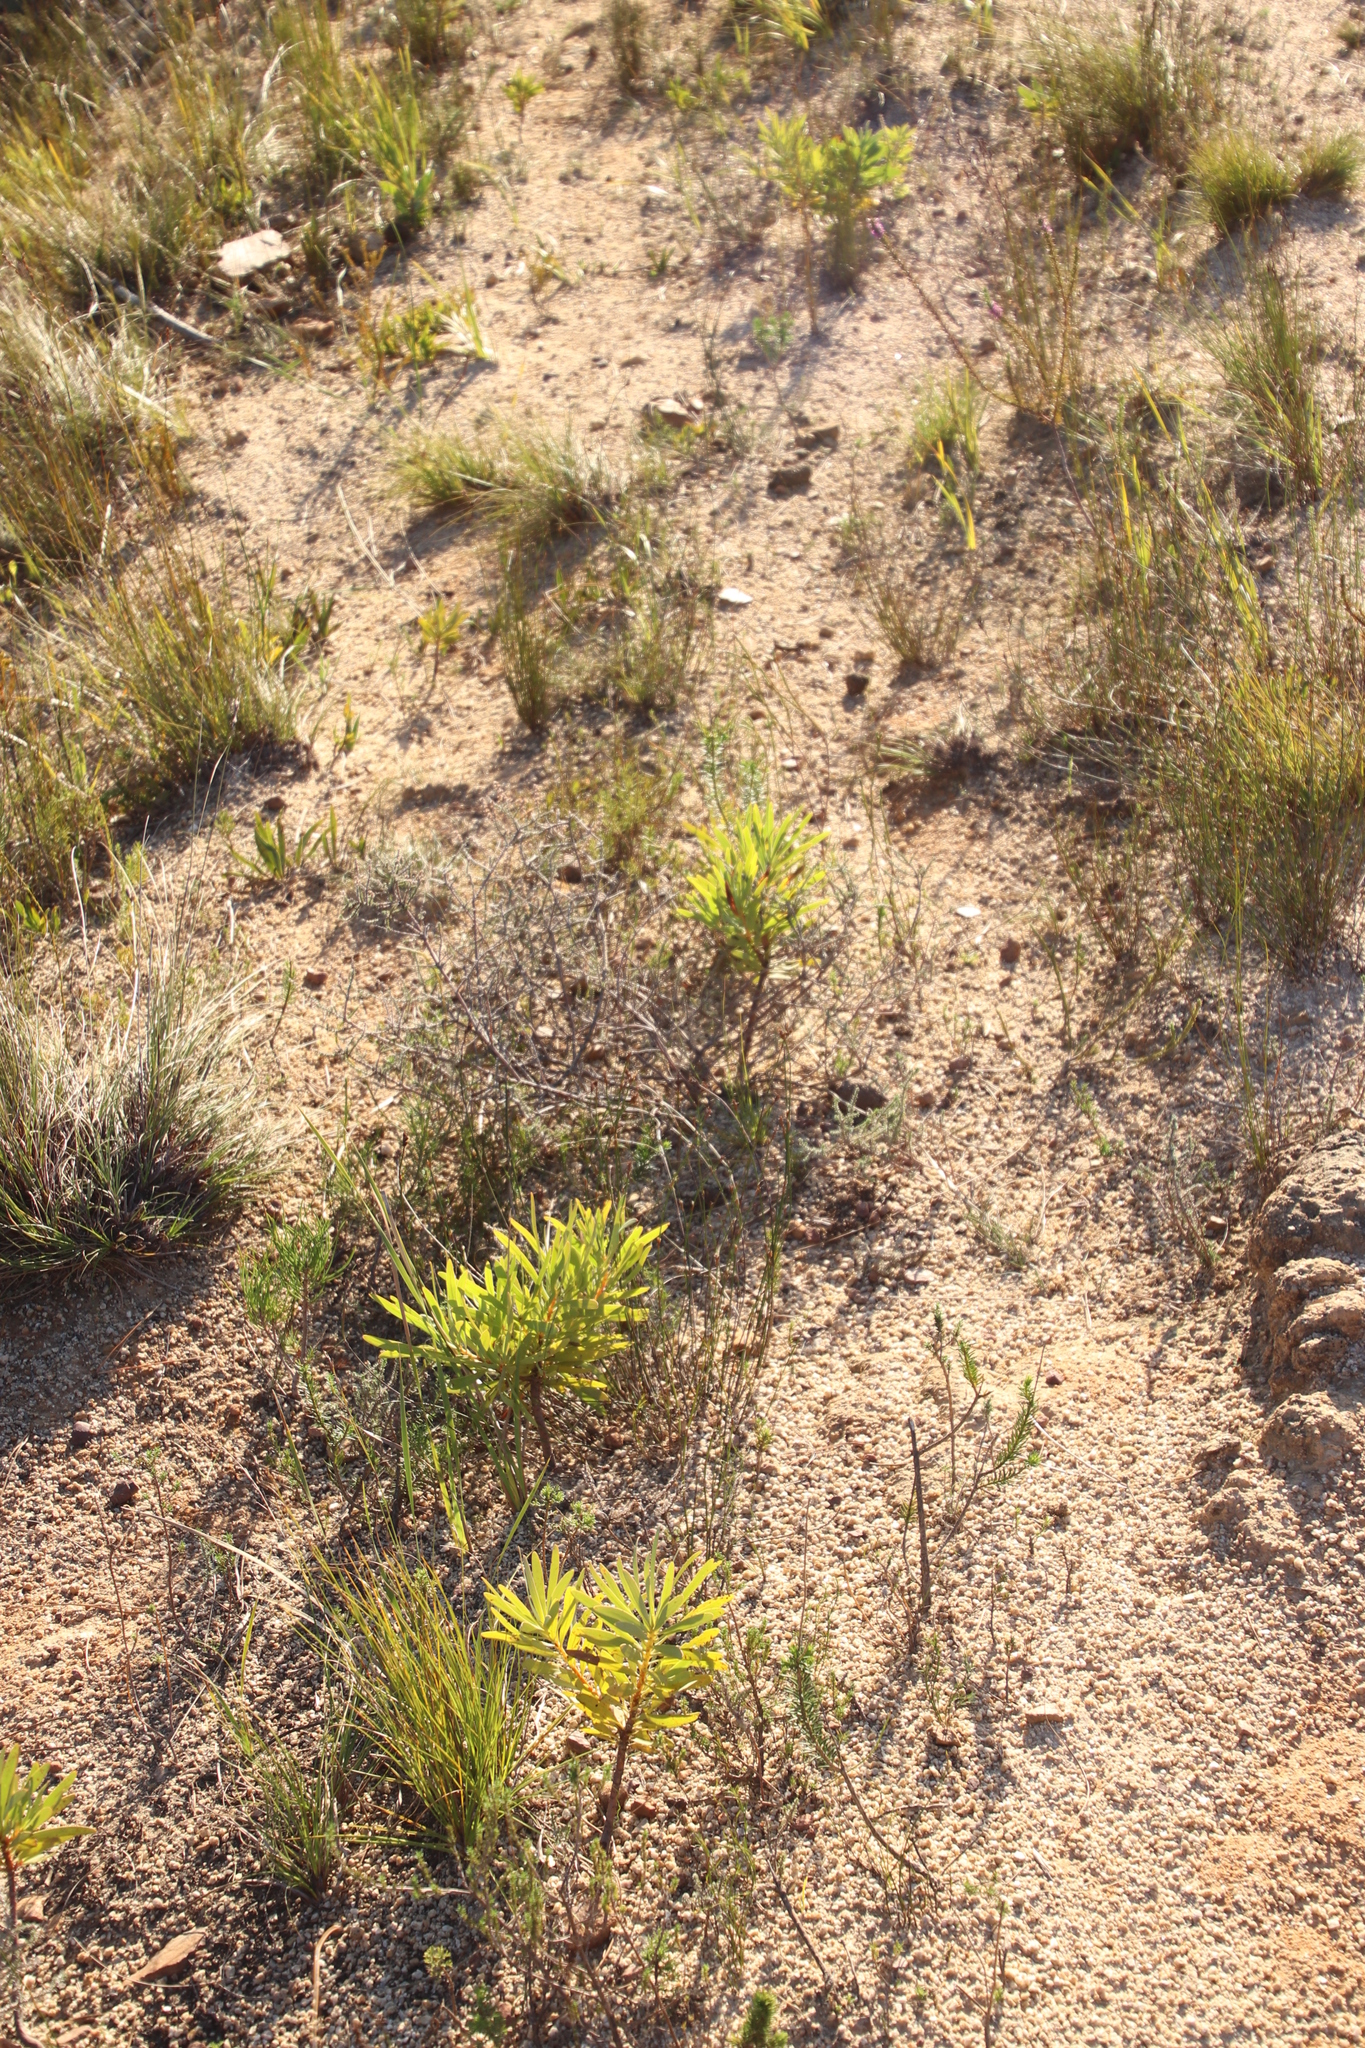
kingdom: Plantae
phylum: Tracheophyta
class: Magnoliopsida
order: Proteales
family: Proteaceae
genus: Protea
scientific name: Protea repens
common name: Sugarbush
